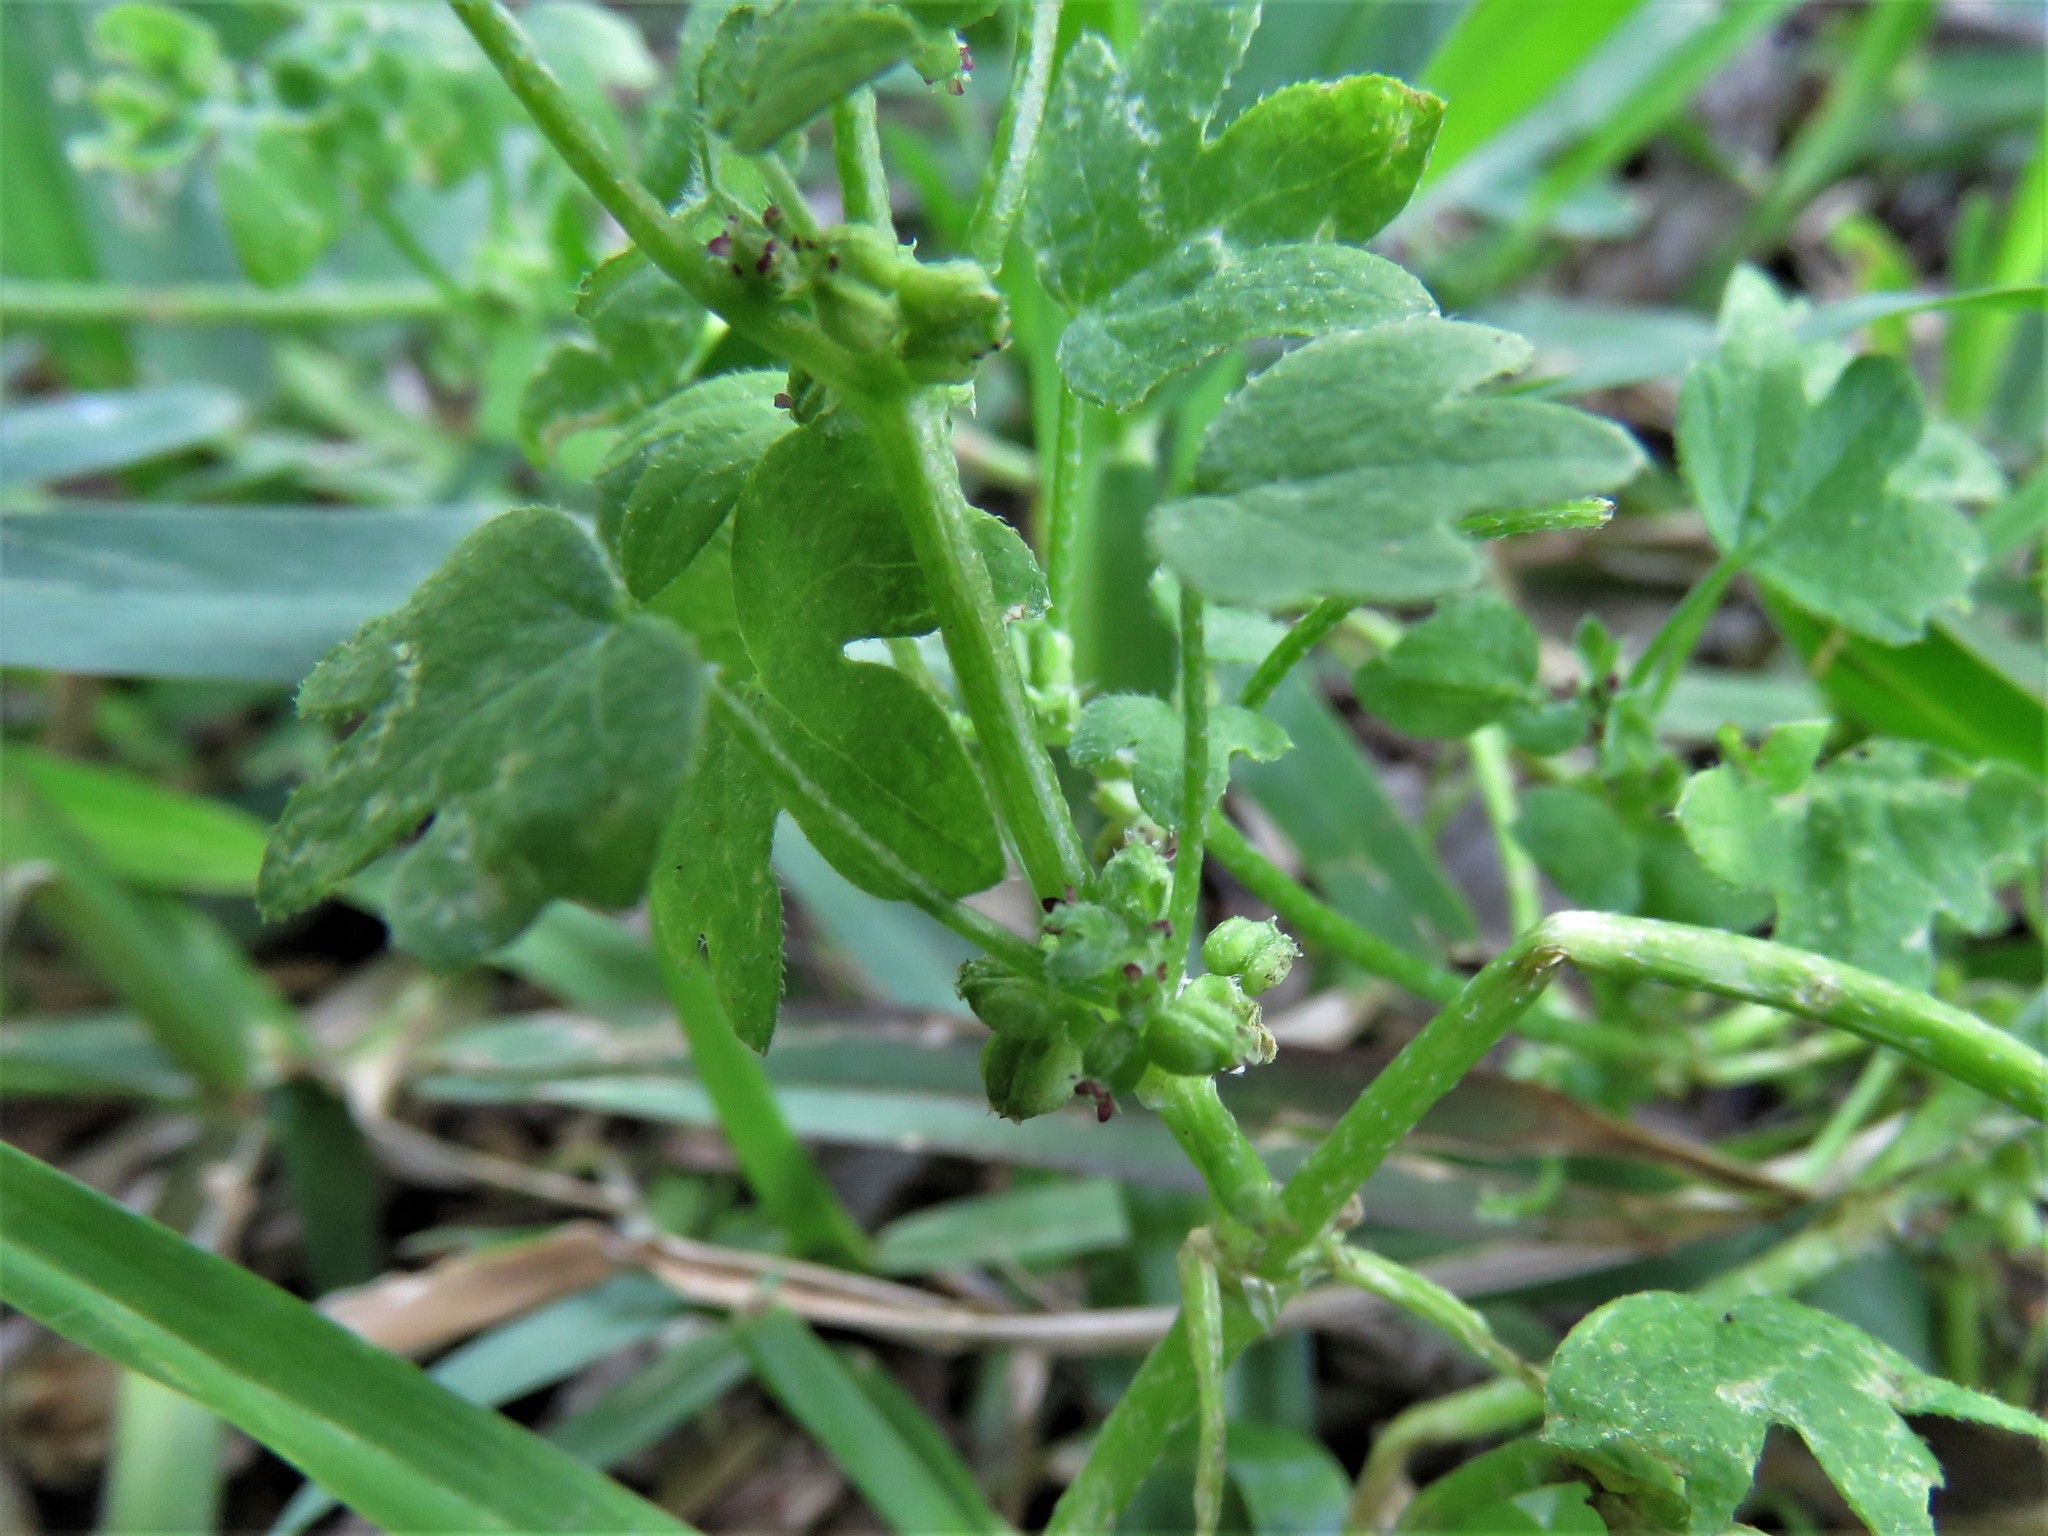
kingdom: Plantae
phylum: Tracheophyta
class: Magnoliopsida
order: Apiales
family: Apiaceae
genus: Bowlesia
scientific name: Bowlesia incana
